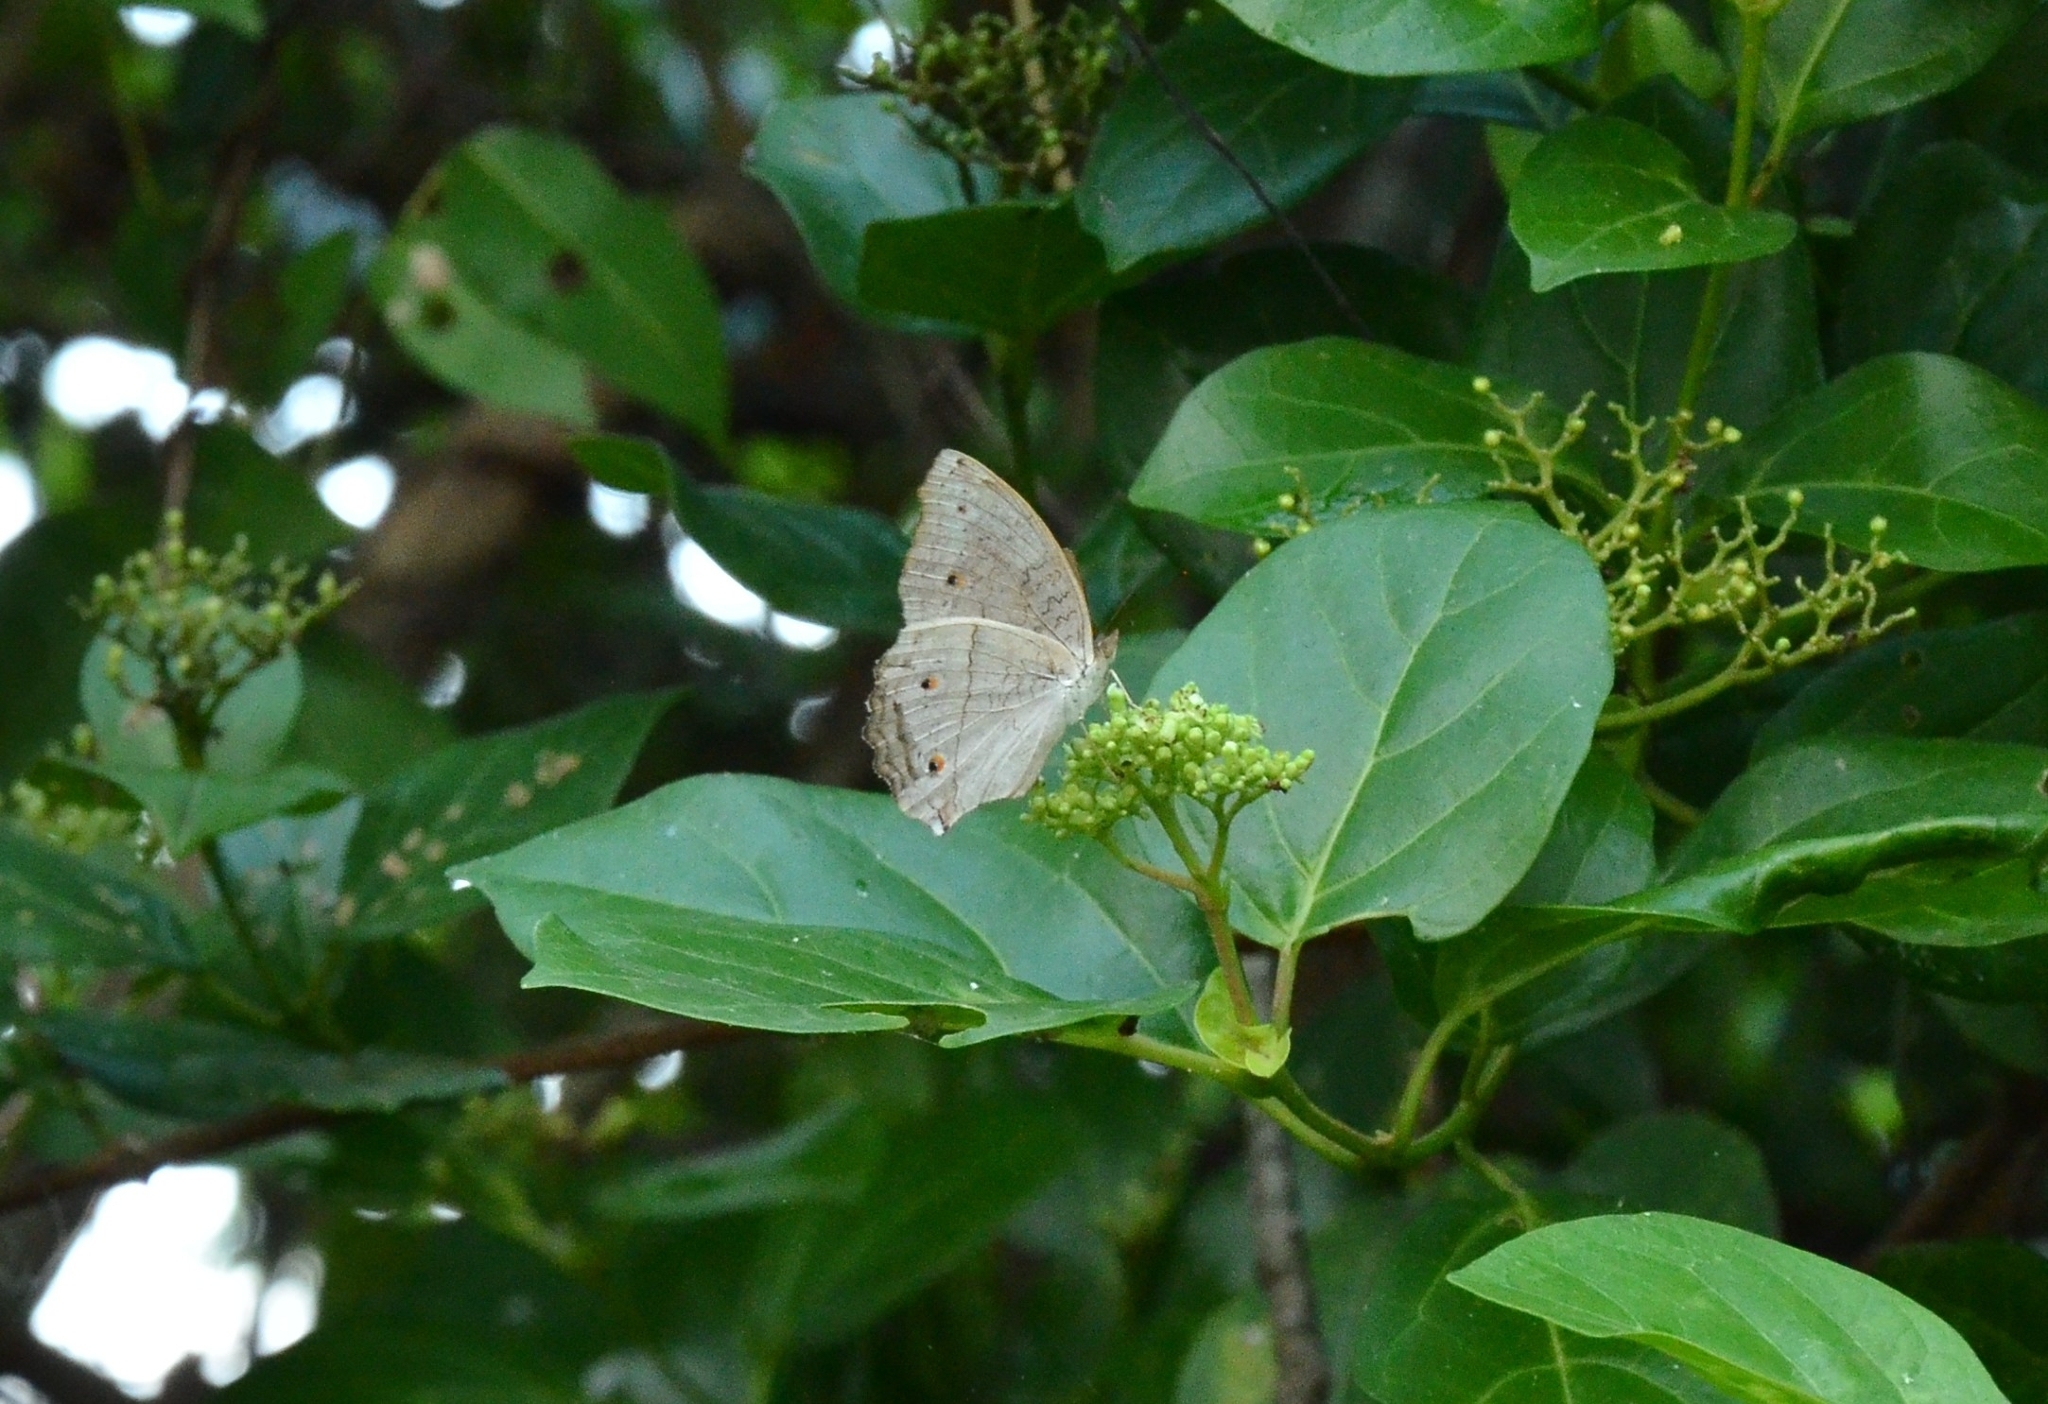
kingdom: Animalia
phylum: Arthropoda
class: Insecta
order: Lepidoptera
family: Nymphalidae
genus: Junonia
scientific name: Junonia atlites
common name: Grey pansy
